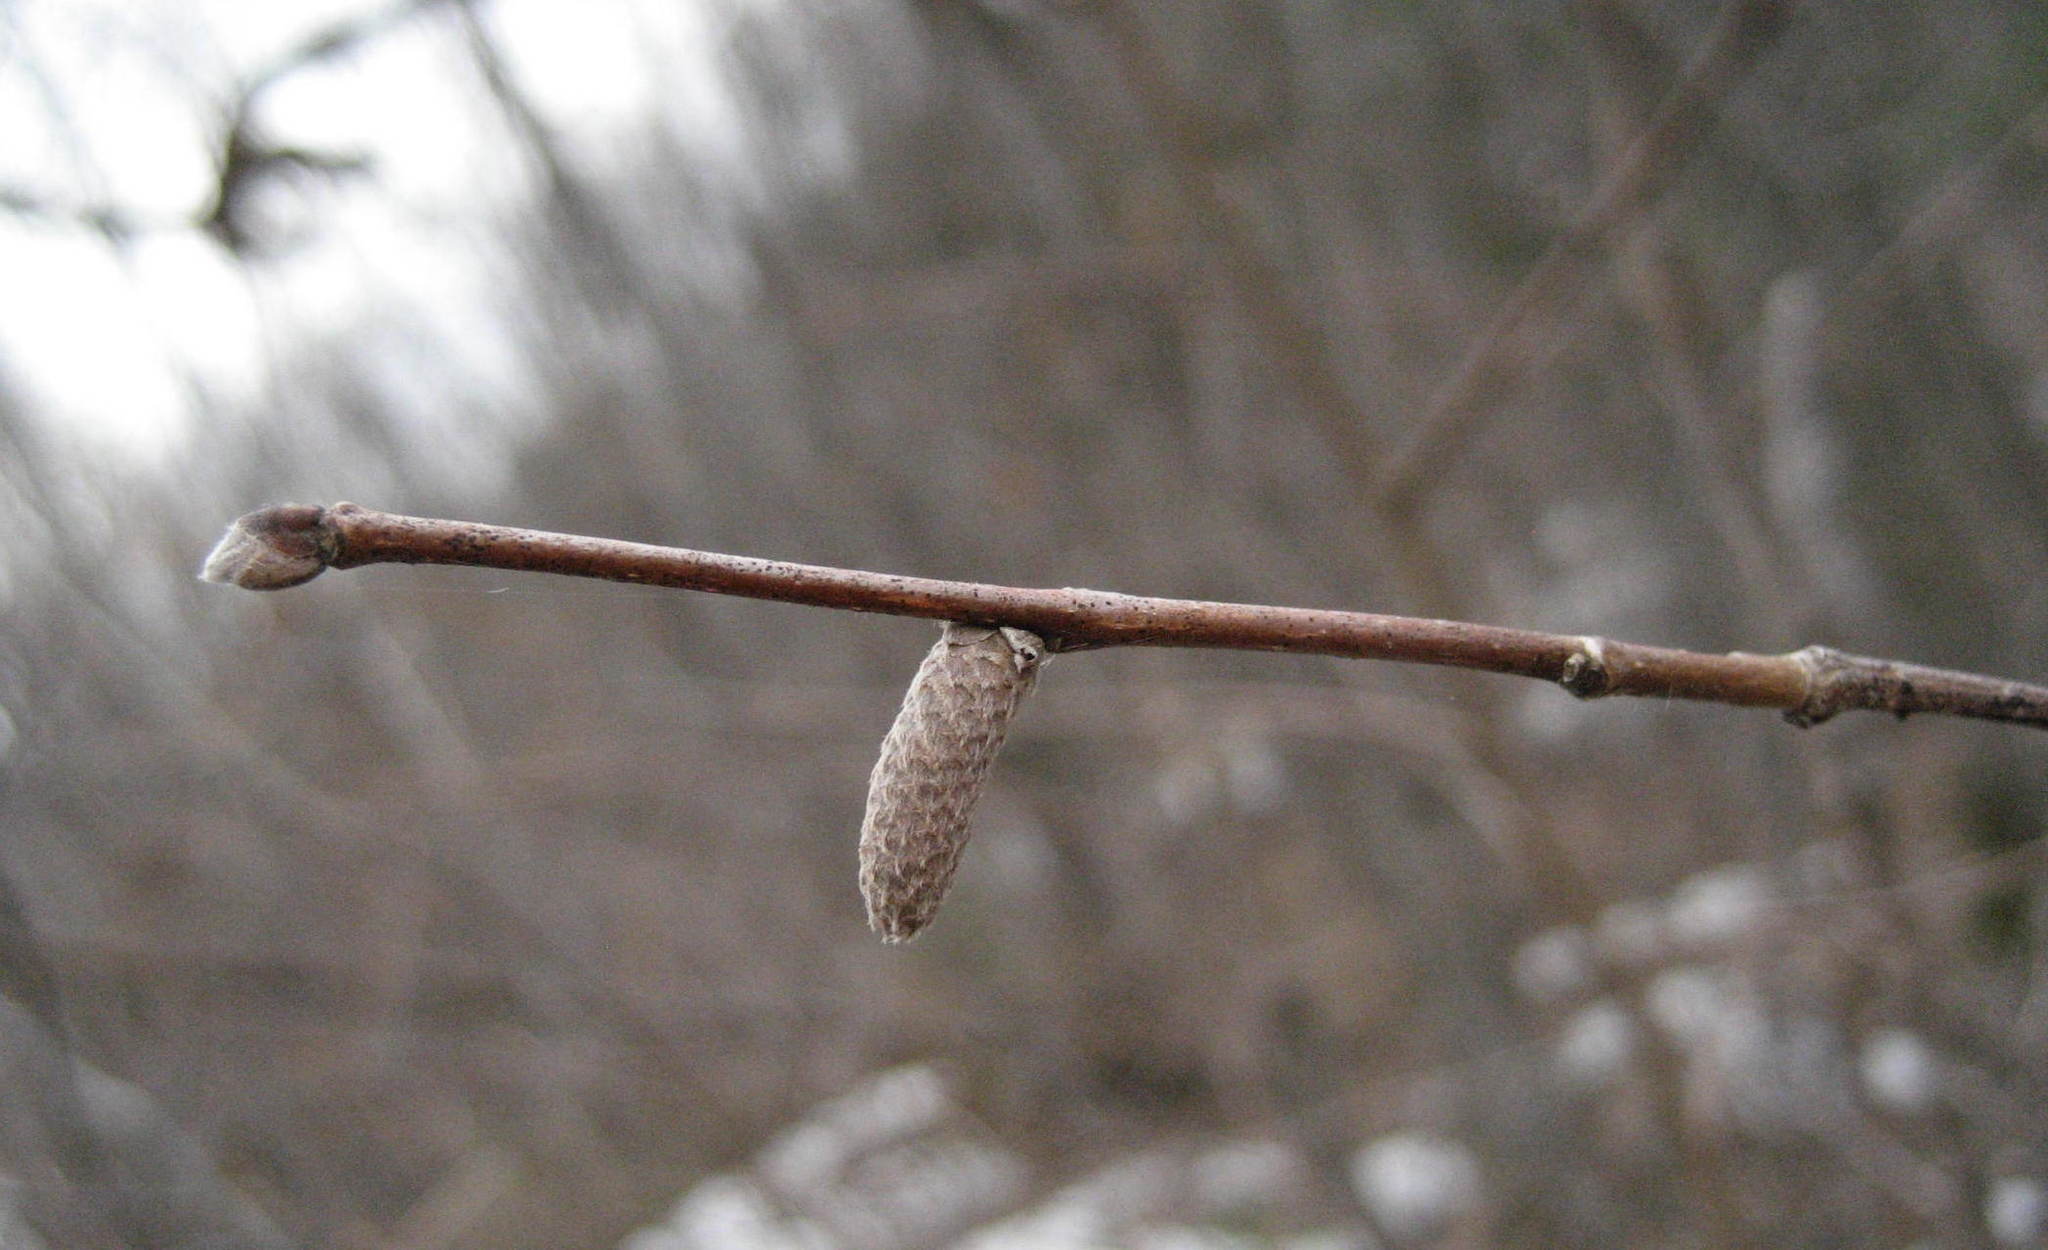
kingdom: Plantae
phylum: Tracheophyta
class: Magnoliopsida
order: Fagales
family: Betulaceae
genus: Corylus
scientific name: Corylus cornuta
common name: Beaked hazel
